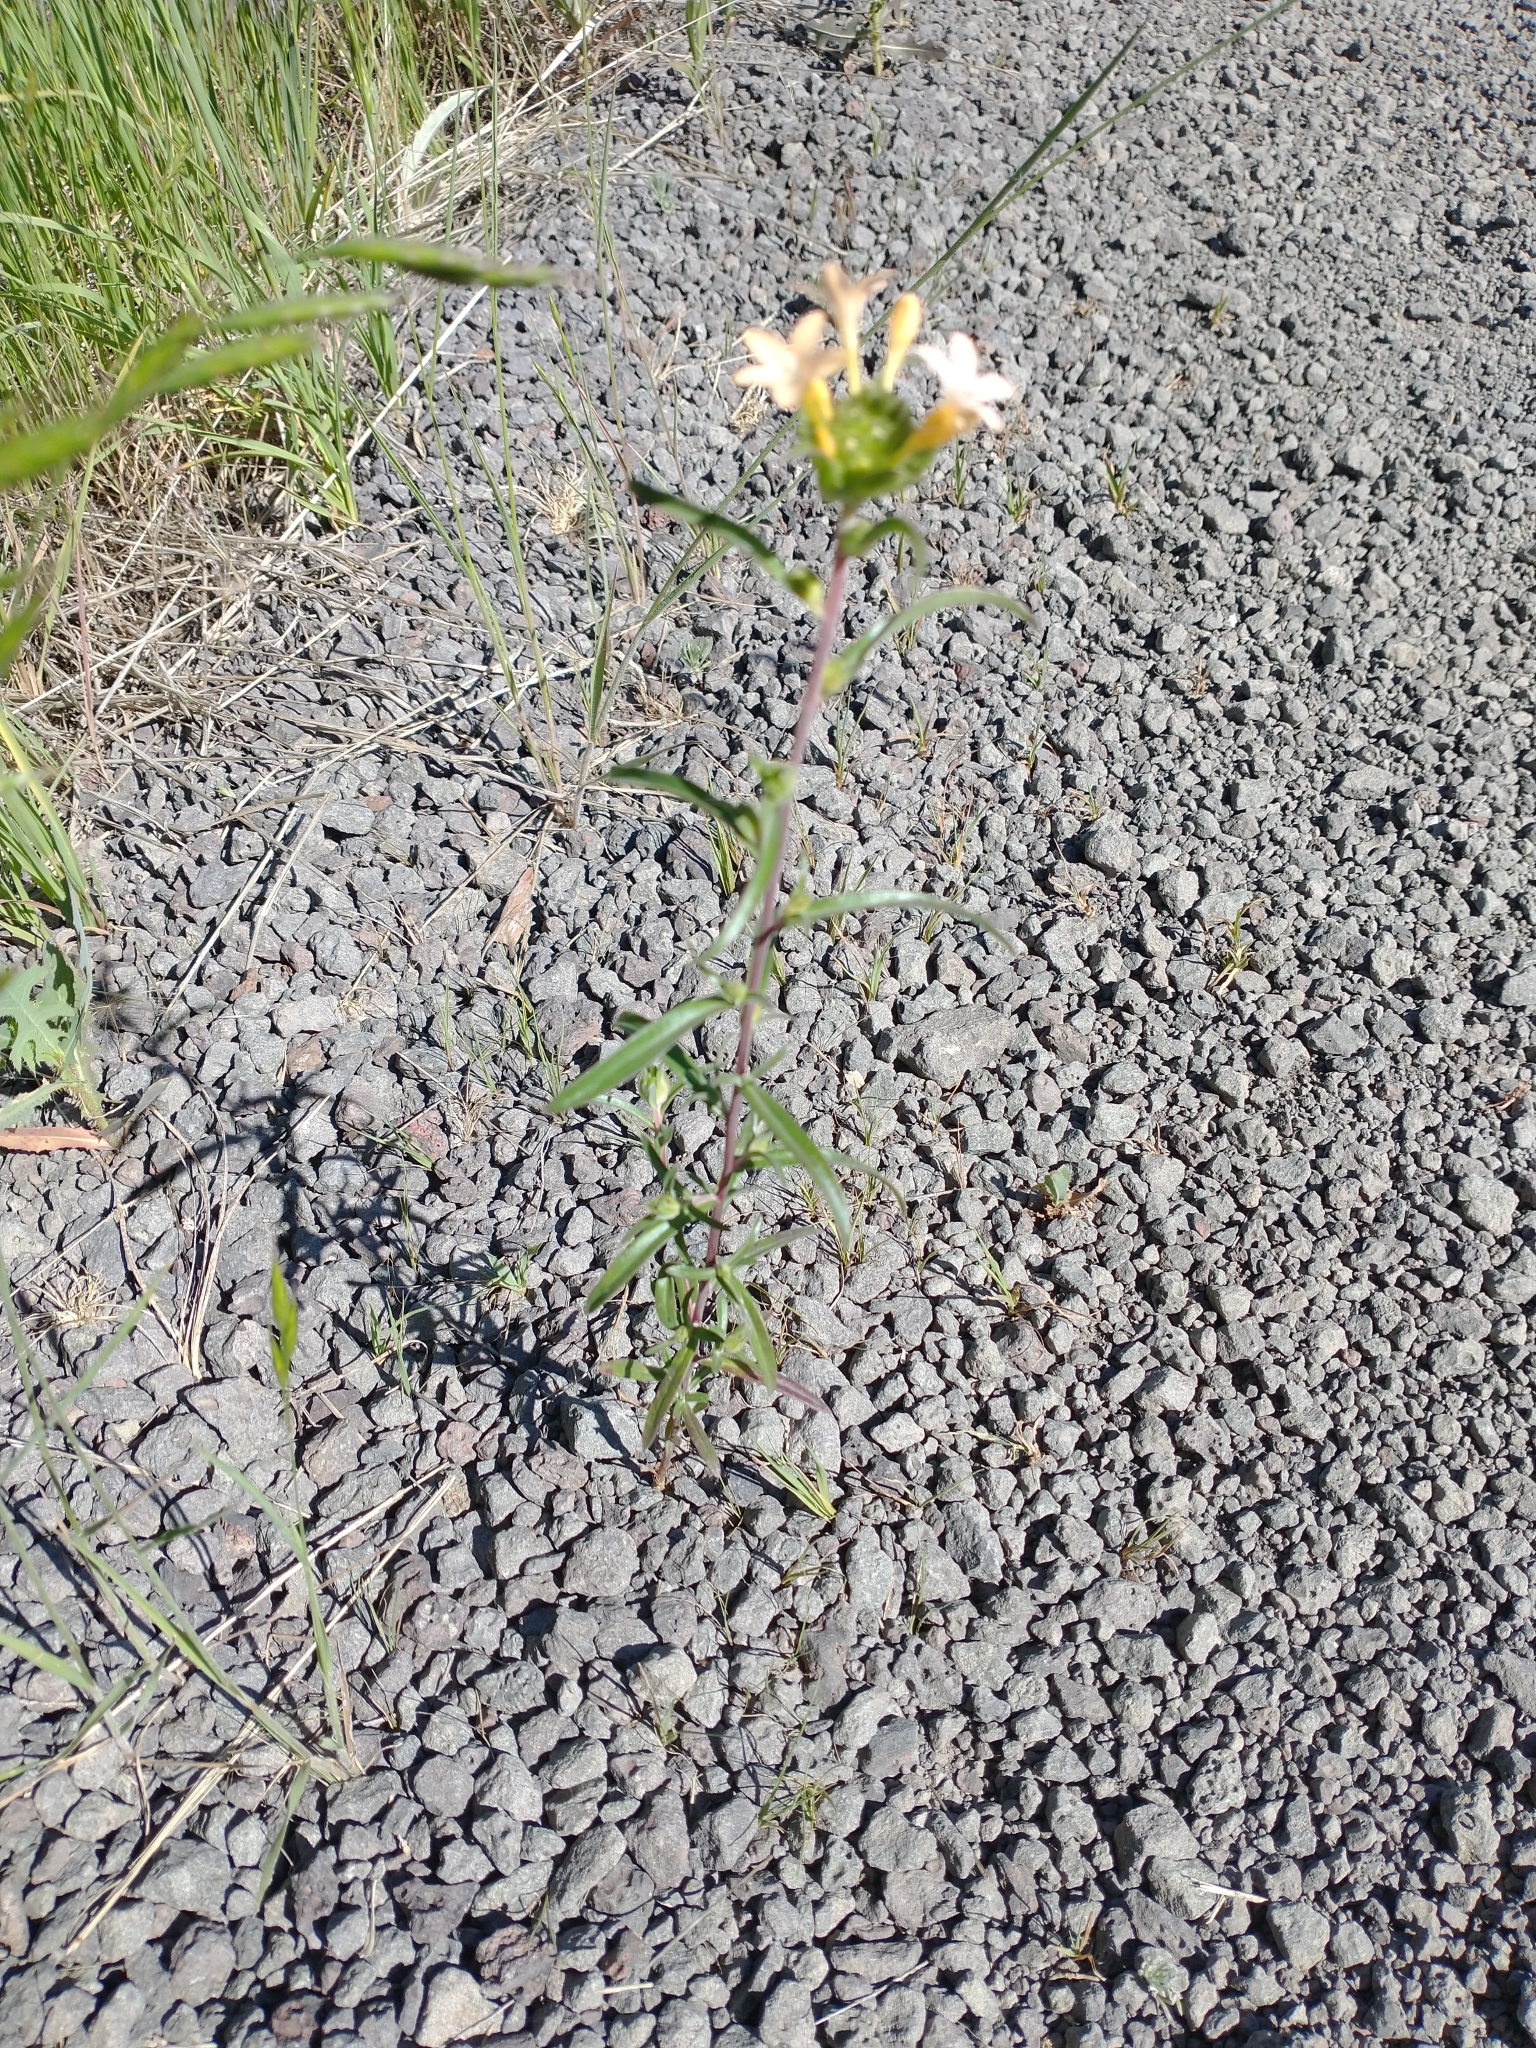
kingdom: Plantae
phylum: Tracheophyta
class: Magnoliopsida
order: Ericales
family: Polemoniaceae
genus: Collomia
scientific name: Collomia grandiflora
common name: California strawflower
